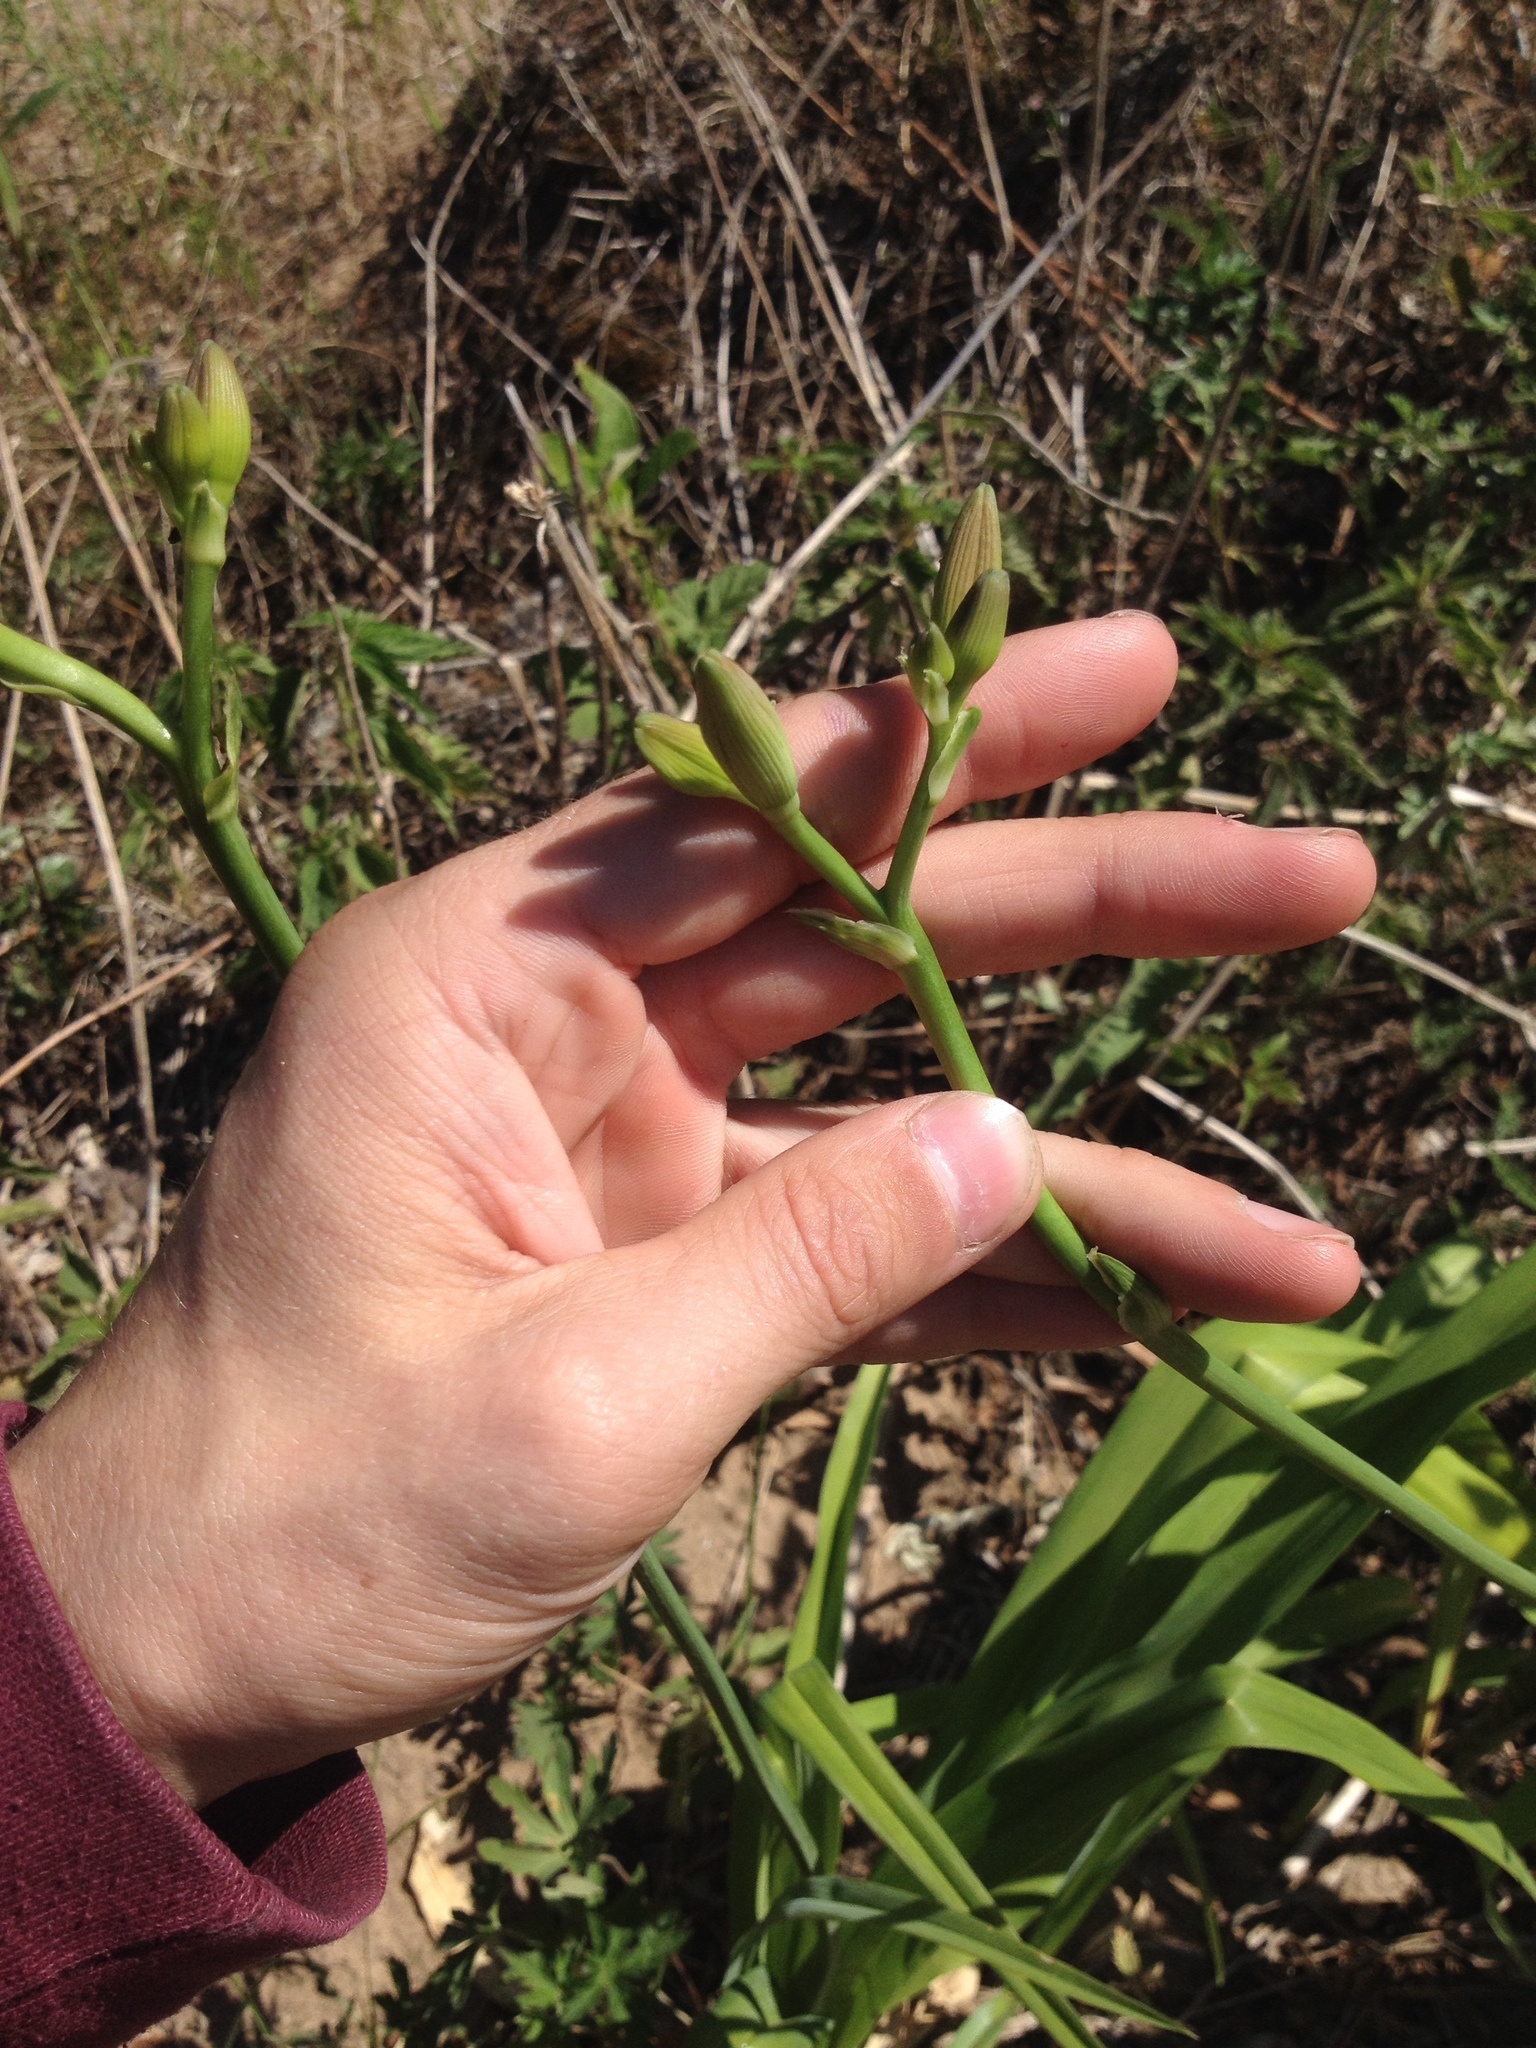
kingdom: Plantae
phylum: Tracheophyta
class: Liliopsida
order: Asparagales
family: Asphodelaceae
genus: Hemerocallis
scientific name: Hemerocallis fulva
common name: Orange day-lily
